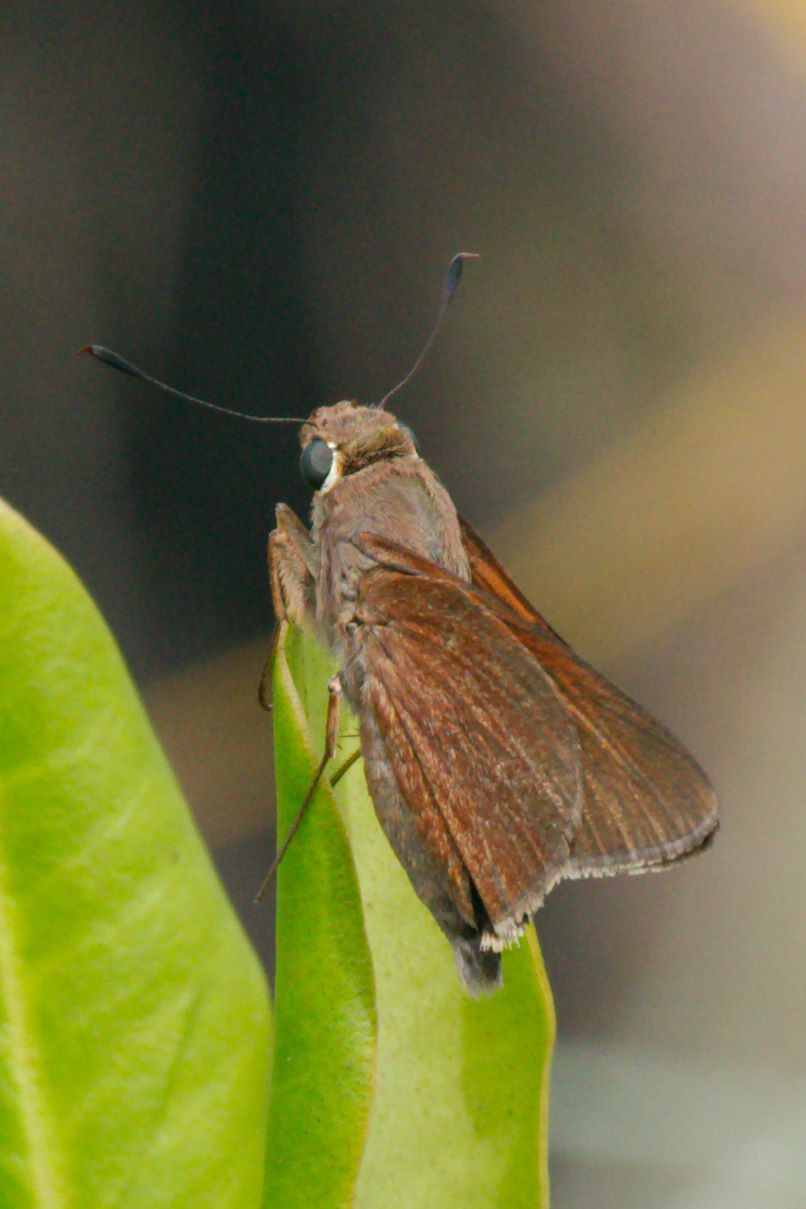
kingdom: Animalia
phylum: Arthropoda
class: Insecta
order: Lepidoptera
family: Hesperiidae
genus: Asbolis
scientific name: Asbolis capucinus
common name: Monk skipper
